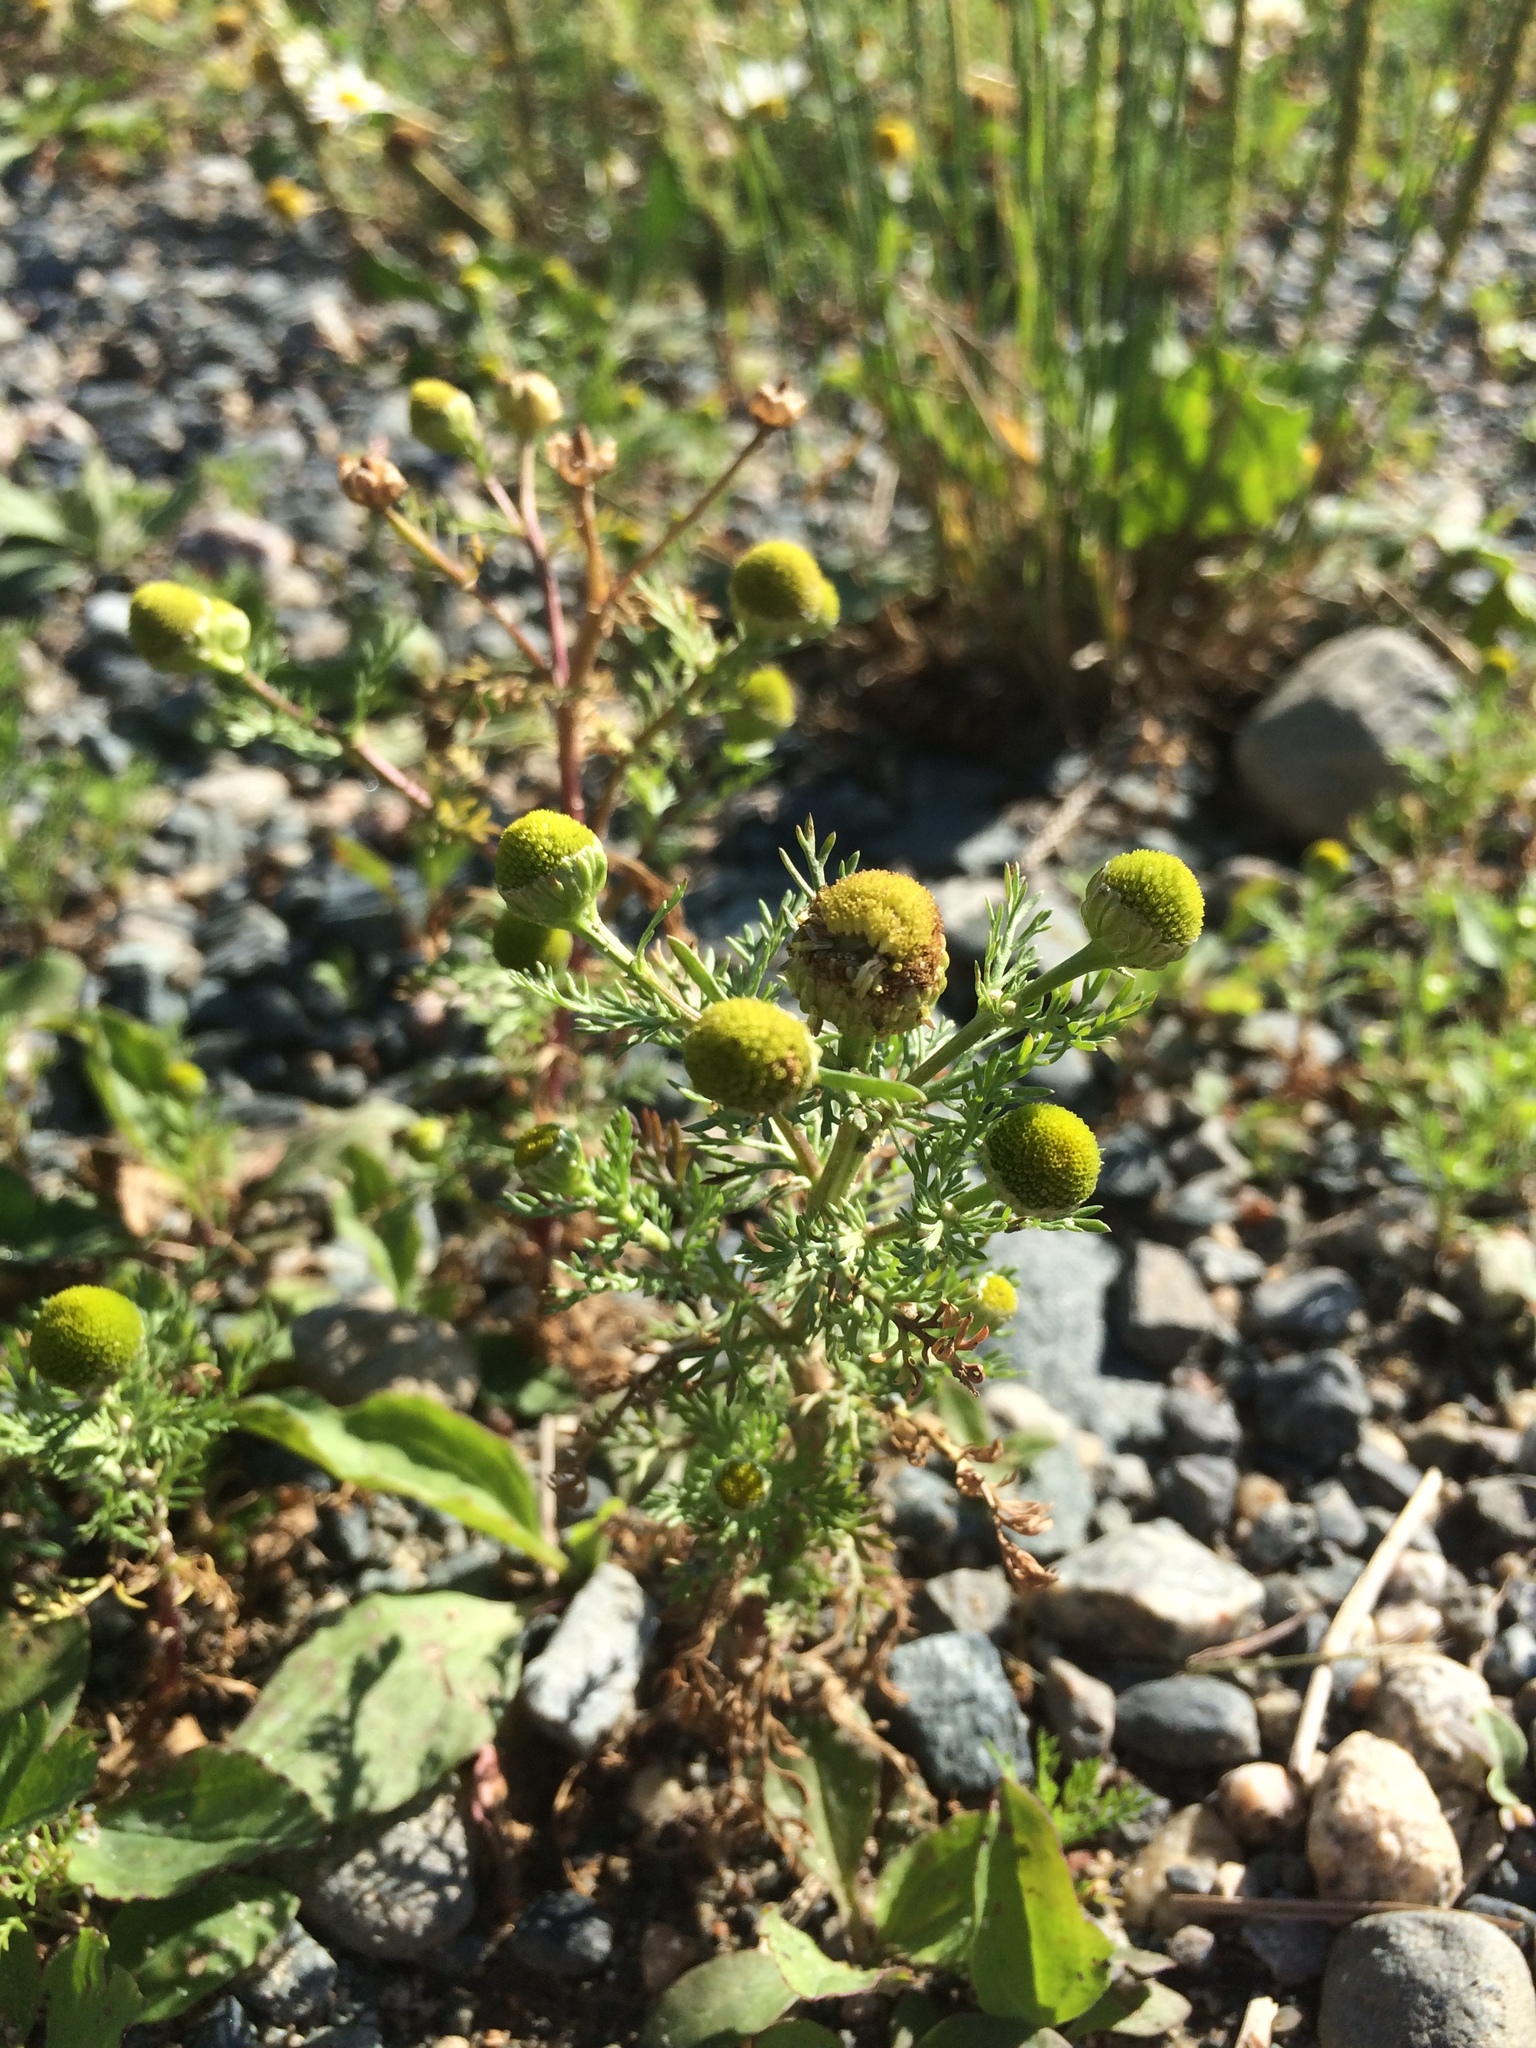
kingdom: Plantae
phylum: Tracheophyta
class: Magnoliopsida
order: Asterales
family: Asteraceae
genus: Matricaria
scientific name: Matricaria discoidea
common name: Disc mayweed
